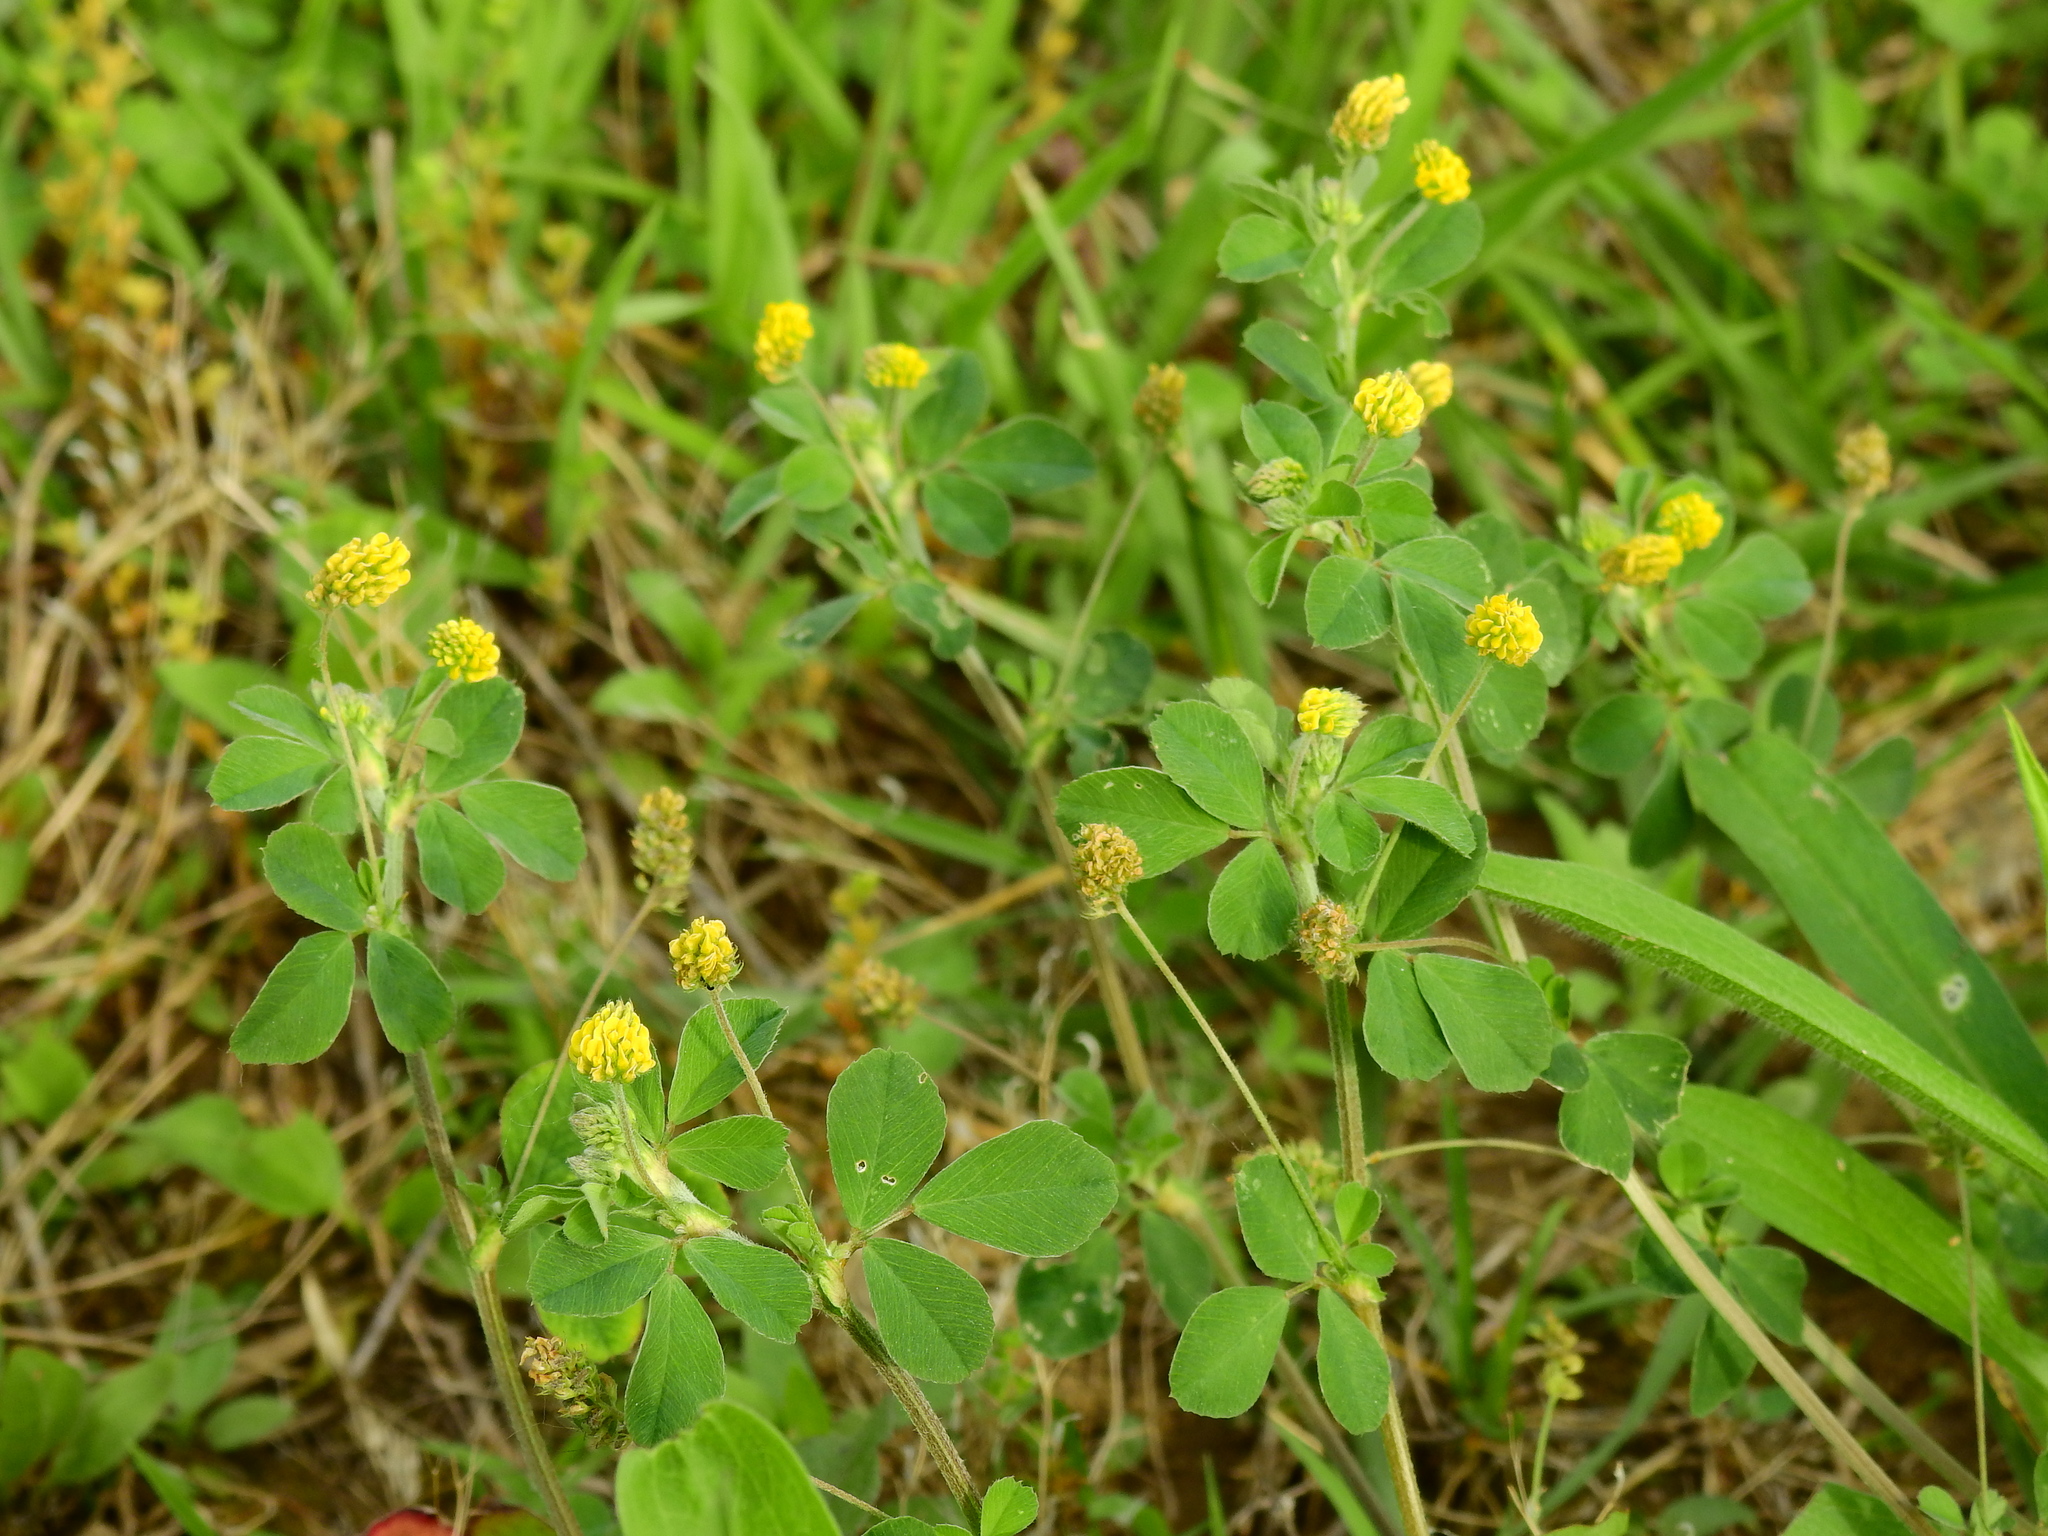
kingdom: Plantae
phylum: Tracheophyta
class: Magnoliopsida
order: Fabales
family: Fabaceae
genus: Medicago
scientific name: Medicago lupulina
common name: Black medick
